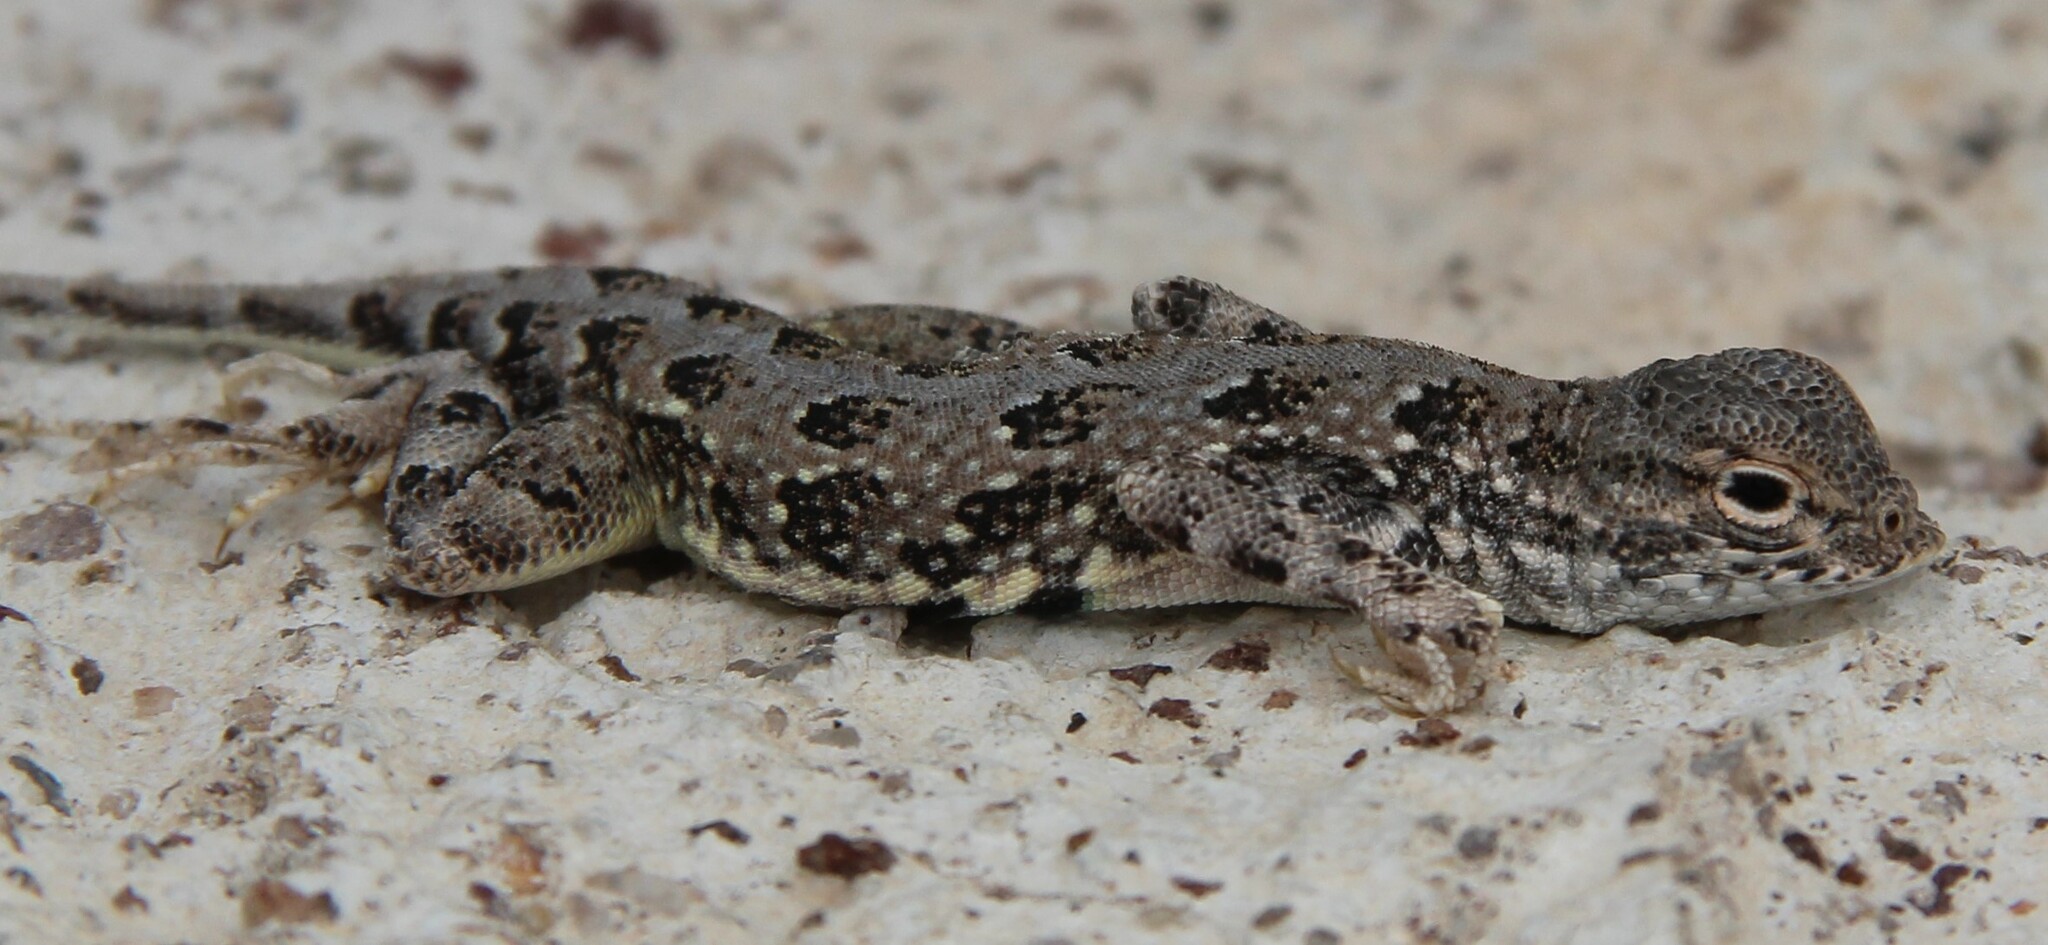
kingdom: Animalia
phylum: Chordata
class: Squamata
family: Phrynosomatidae
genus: Holbrookia
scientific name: Holbrookia maculata
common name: Lesser earless lizard
